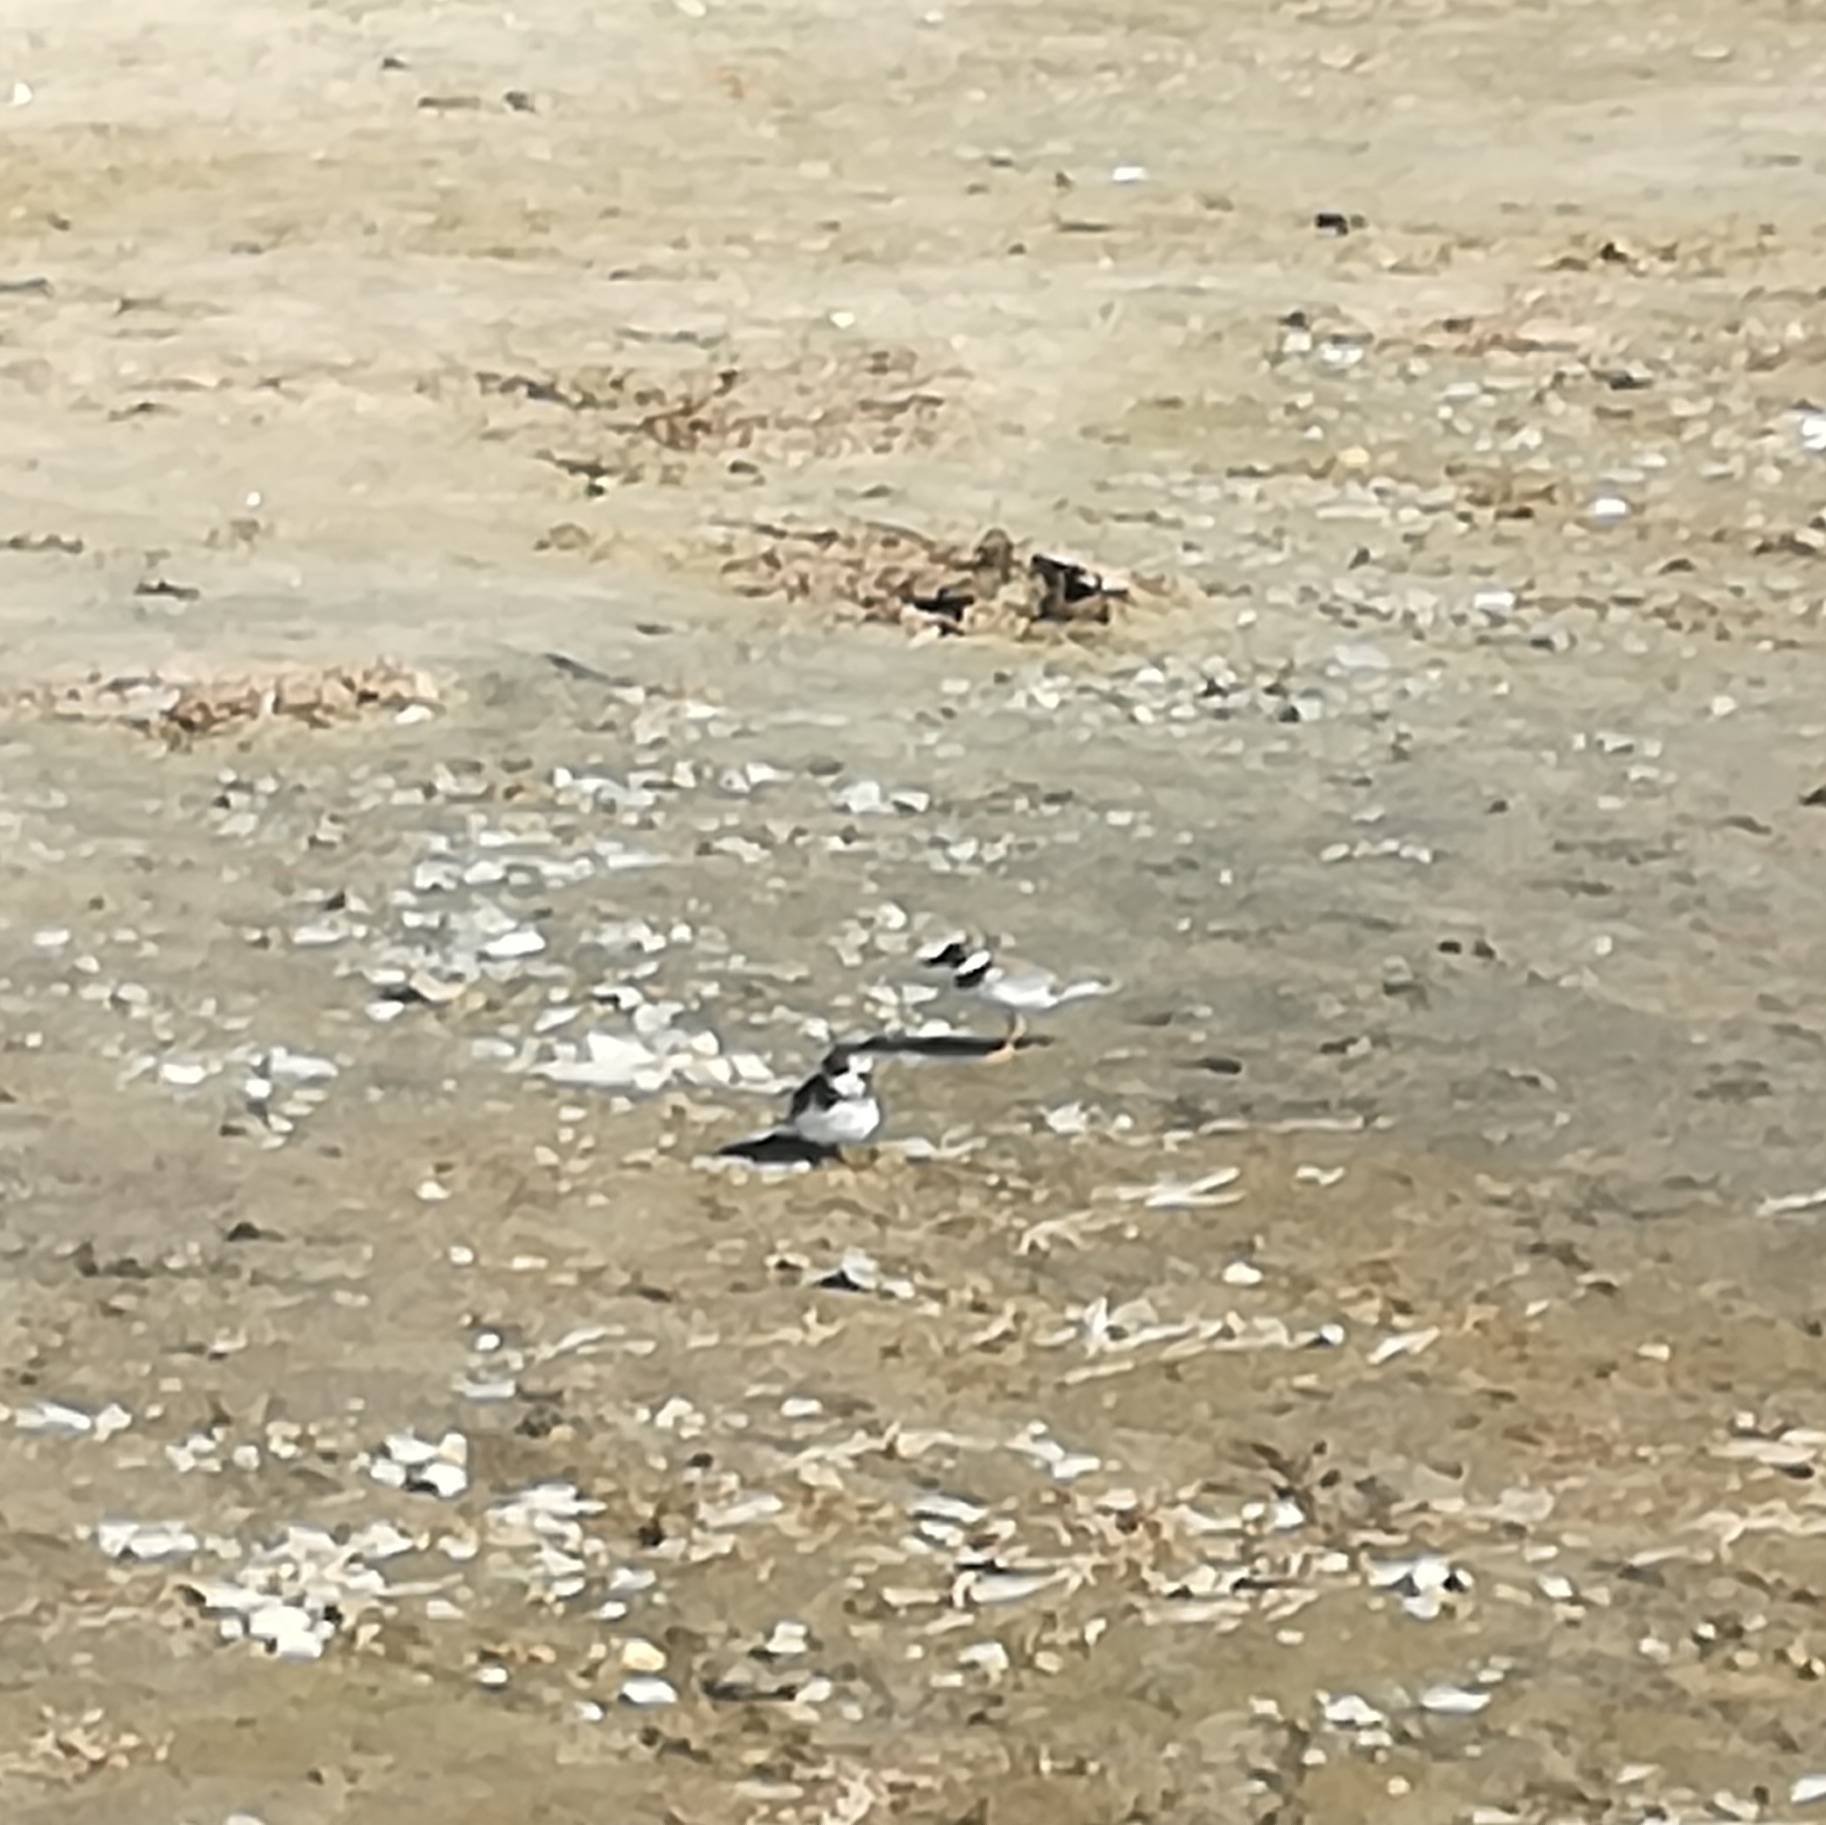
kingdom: Animalia
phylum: Chordata
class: Aves
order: Charadriiformes
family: Charadriidae
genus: Charadrius
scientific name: Charadrius semipalmatus
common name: Semipalmated plover
